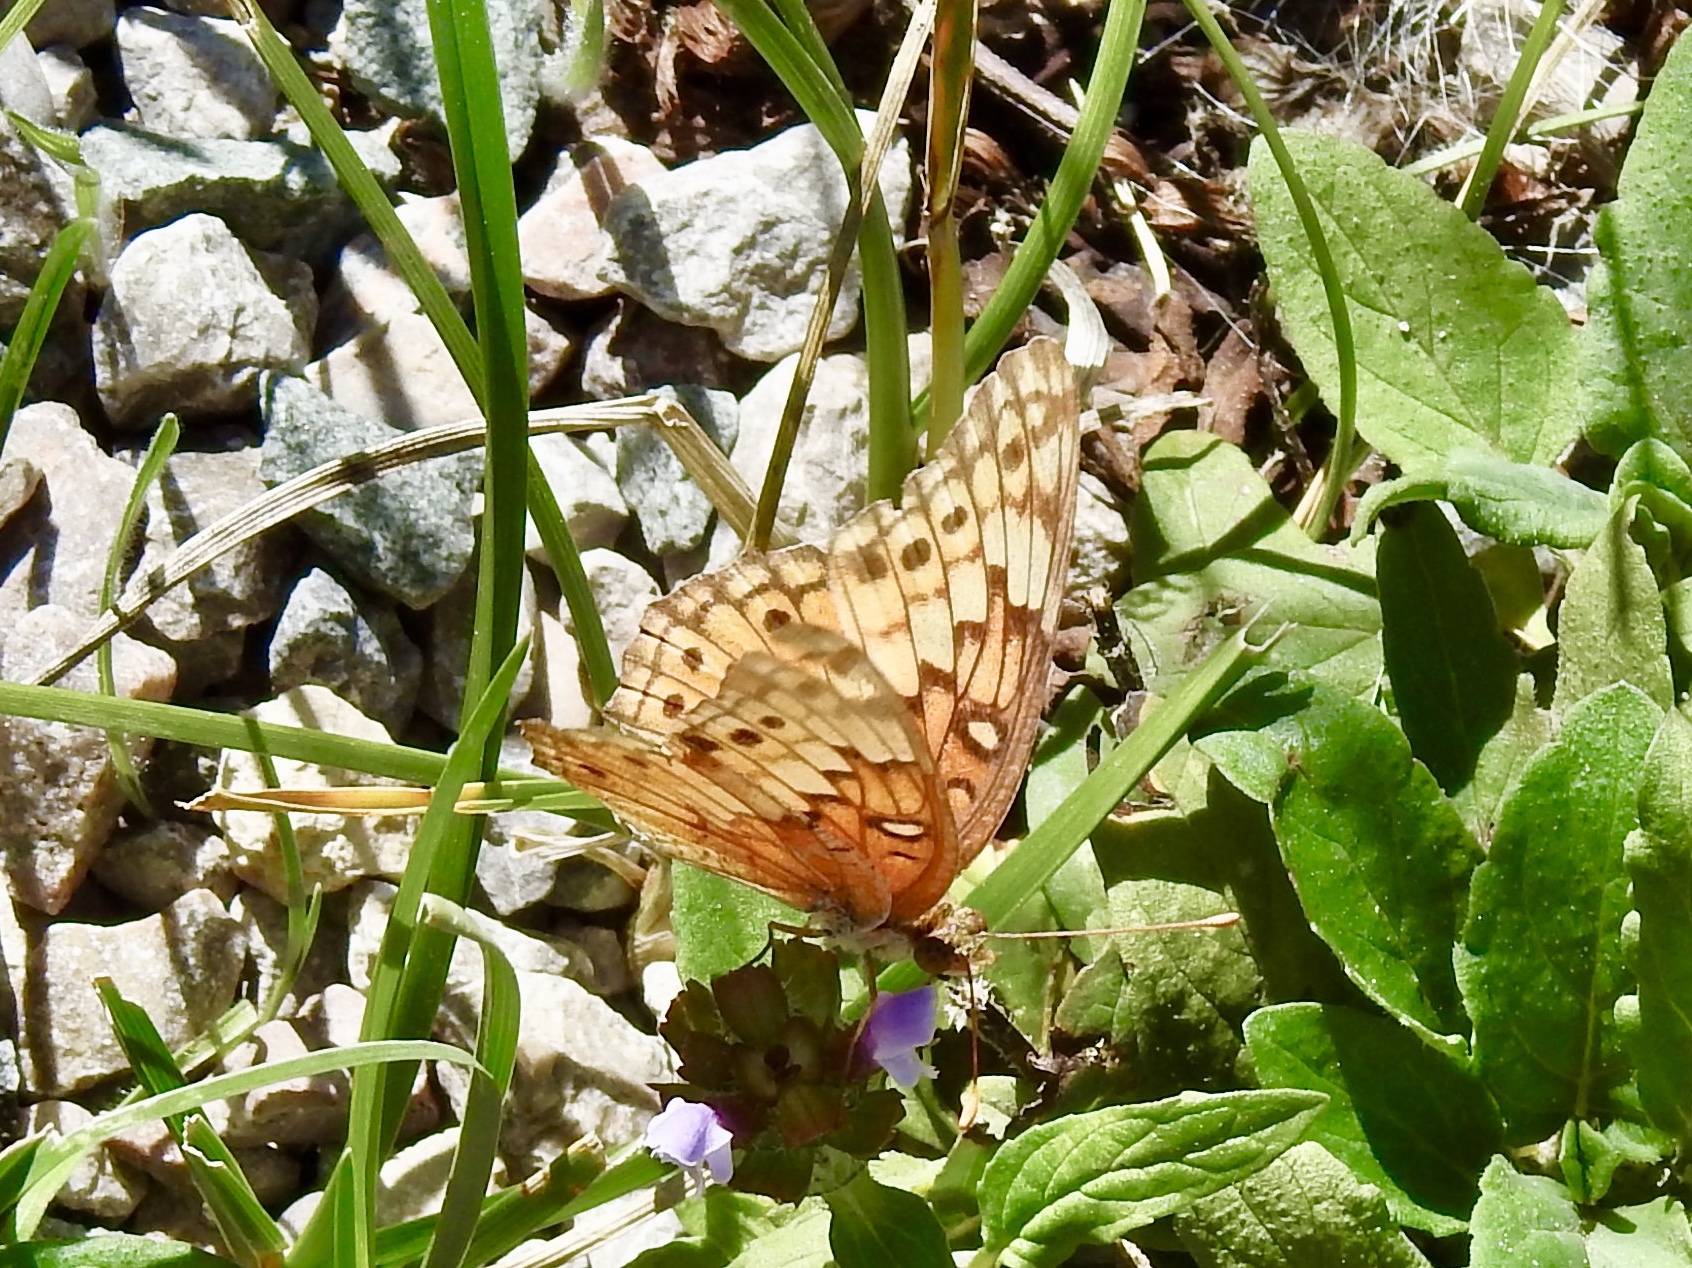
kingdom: Animalia
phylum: Arthropoda
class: Insecta
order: Lepidoptera
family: Nymphalidae
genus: Euptoieta
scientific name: Euptoieta claudia
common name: Variegated fritillary
